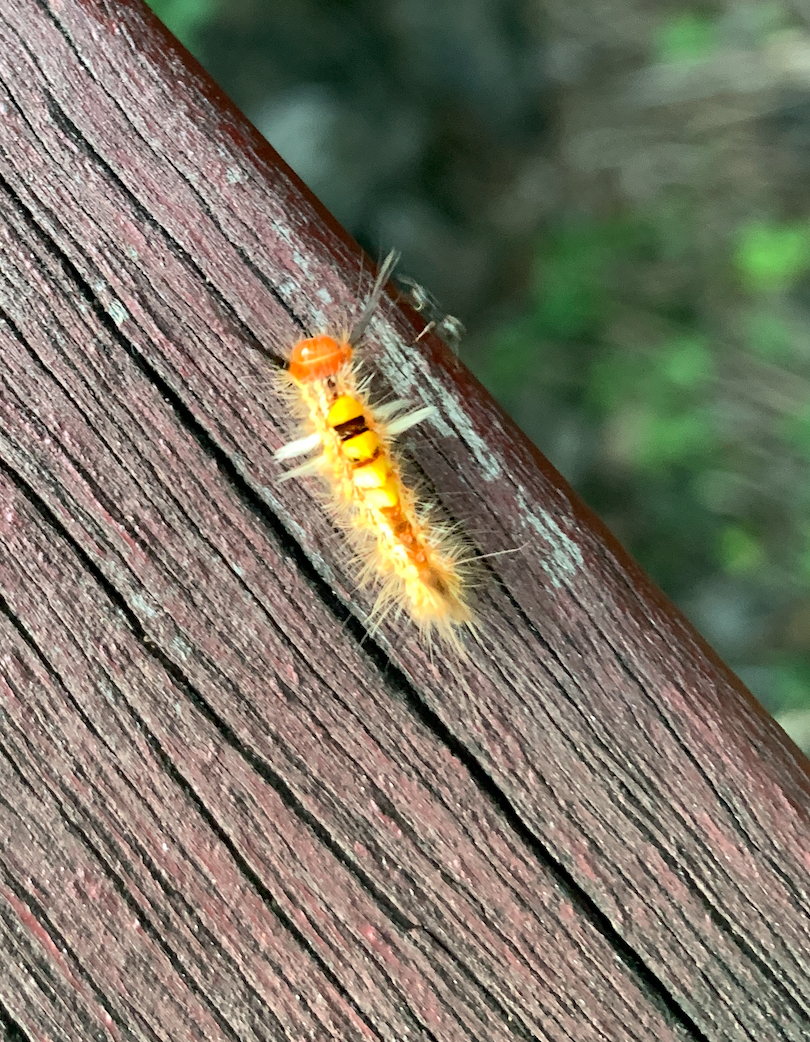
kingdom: Animalia
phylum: Arthropoda
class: Insecta
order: Lepidoptera
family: Erebidae
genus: Orgyia
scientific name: Orgyia postica
